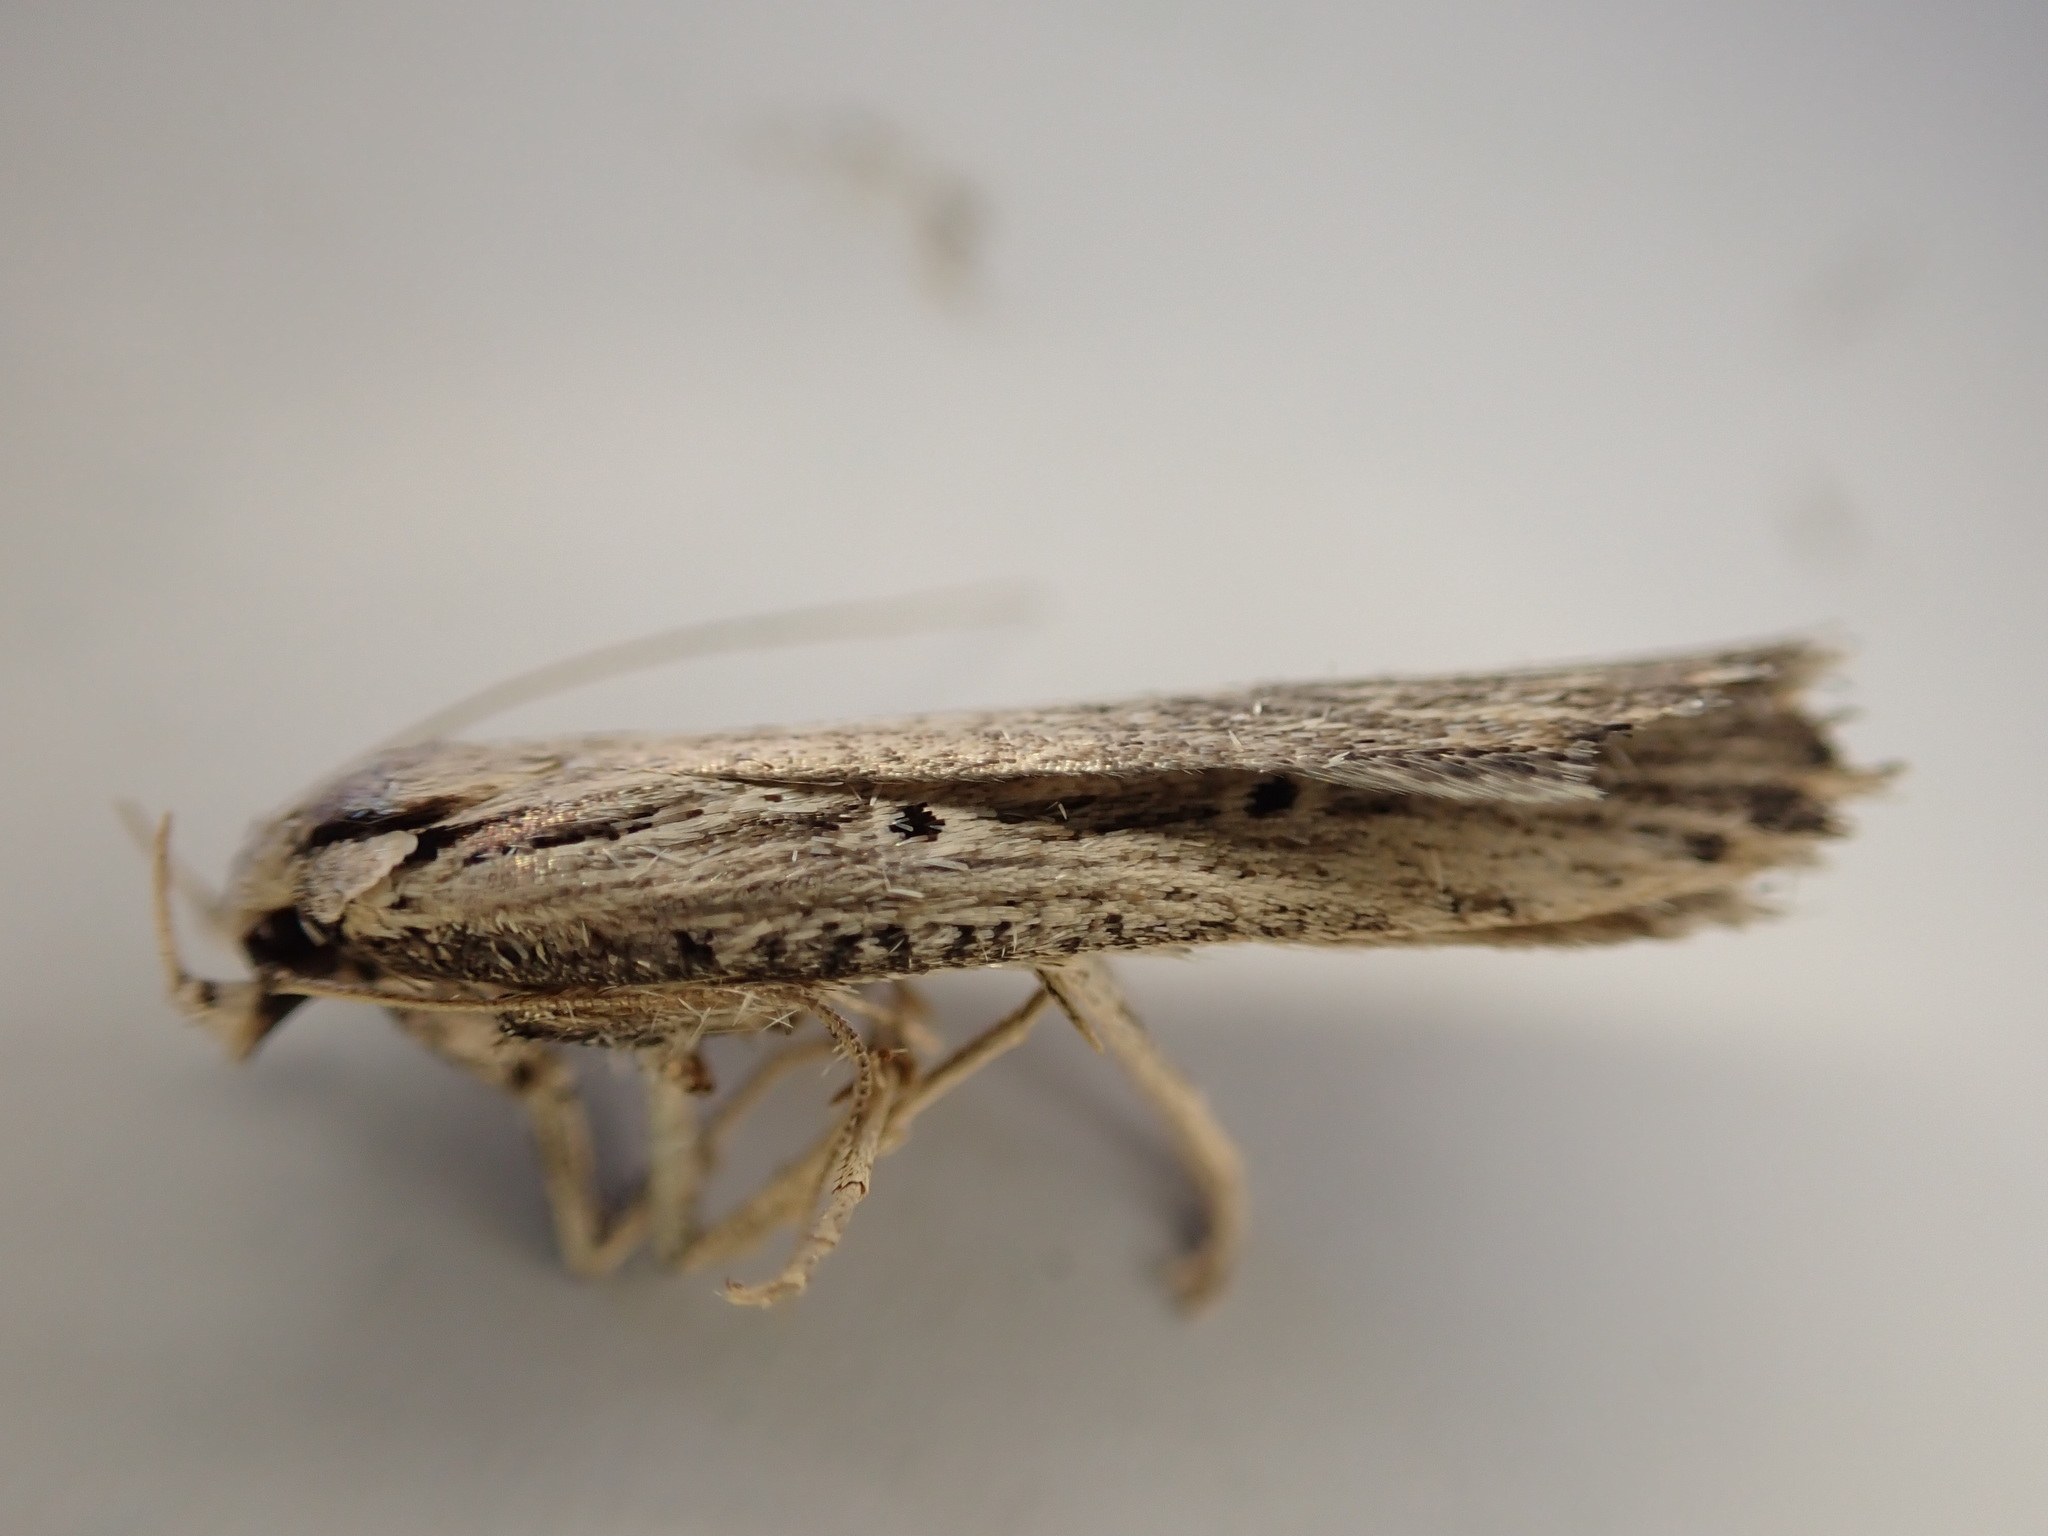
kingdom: Animalia
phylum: Arthropoda
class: Insecta
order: Lepidoptera
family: Gelechiidae
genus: Anisoplaca
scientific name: Anisoplaca ptyoptera
